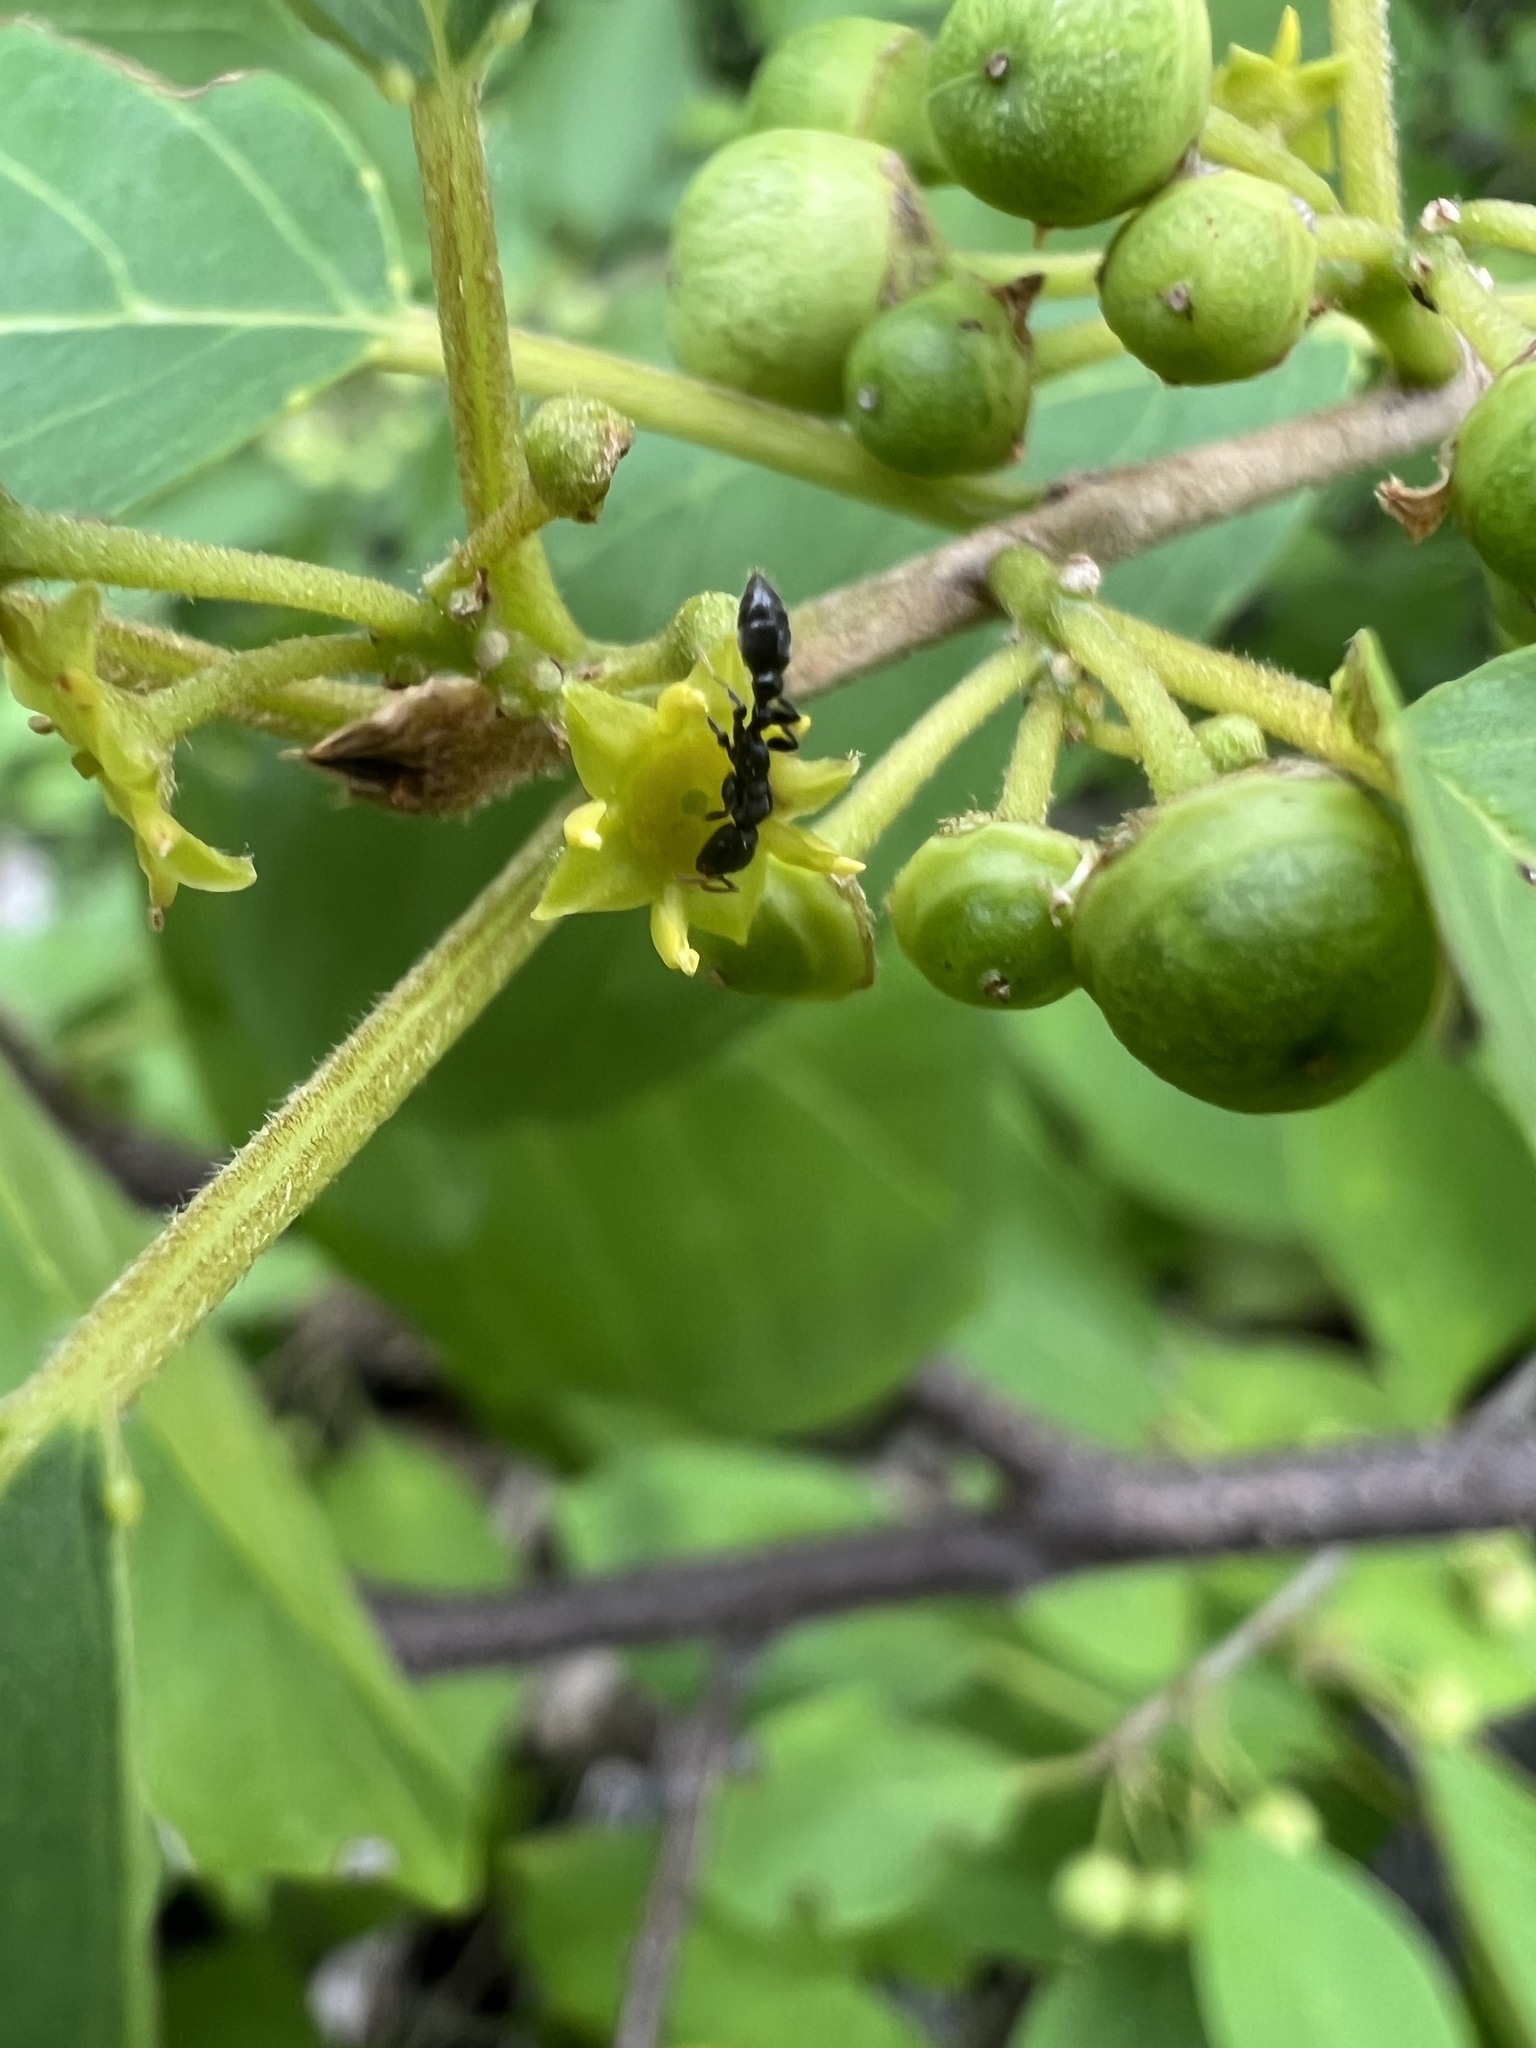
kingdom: Animalia
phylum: Arthropoda
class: Insecta
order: Hymenoptera
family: Formicidae
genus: Pseudomyrmex
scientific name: Pseudomyrmex cubaensis
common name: Ant
